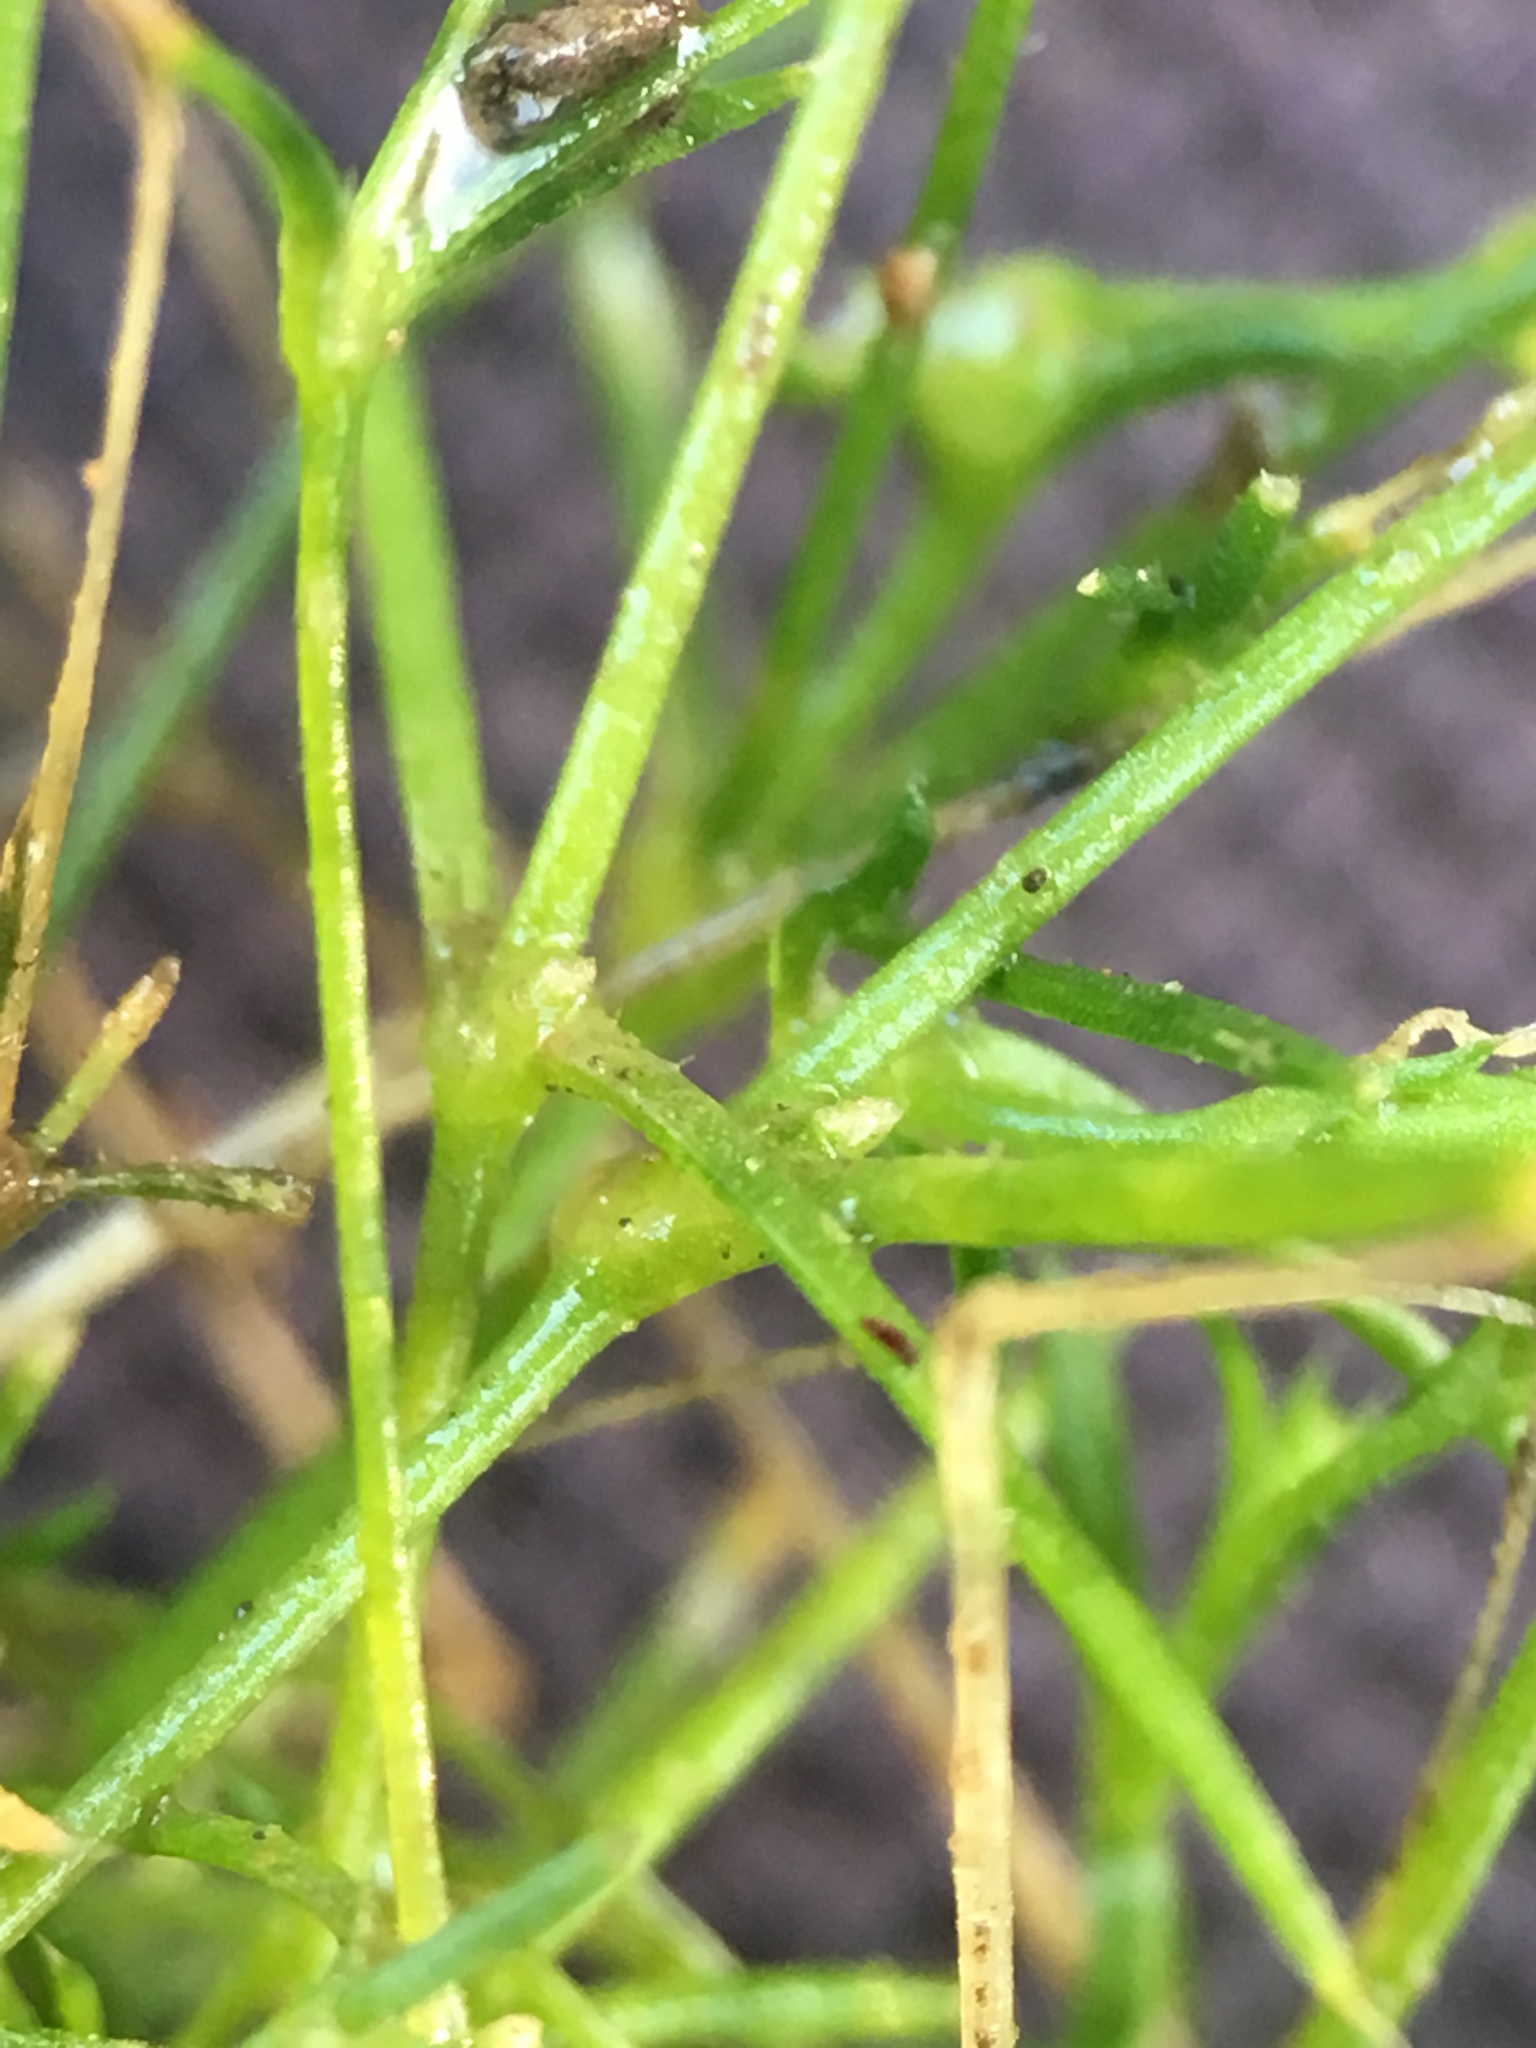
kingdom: Plantae
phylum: Tracheophyta
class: Magnoliopsida
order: Caryophyllales
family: Caryophyllaceae
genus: Sagina
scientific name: Sagina apetala
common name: Annual pearlwort
